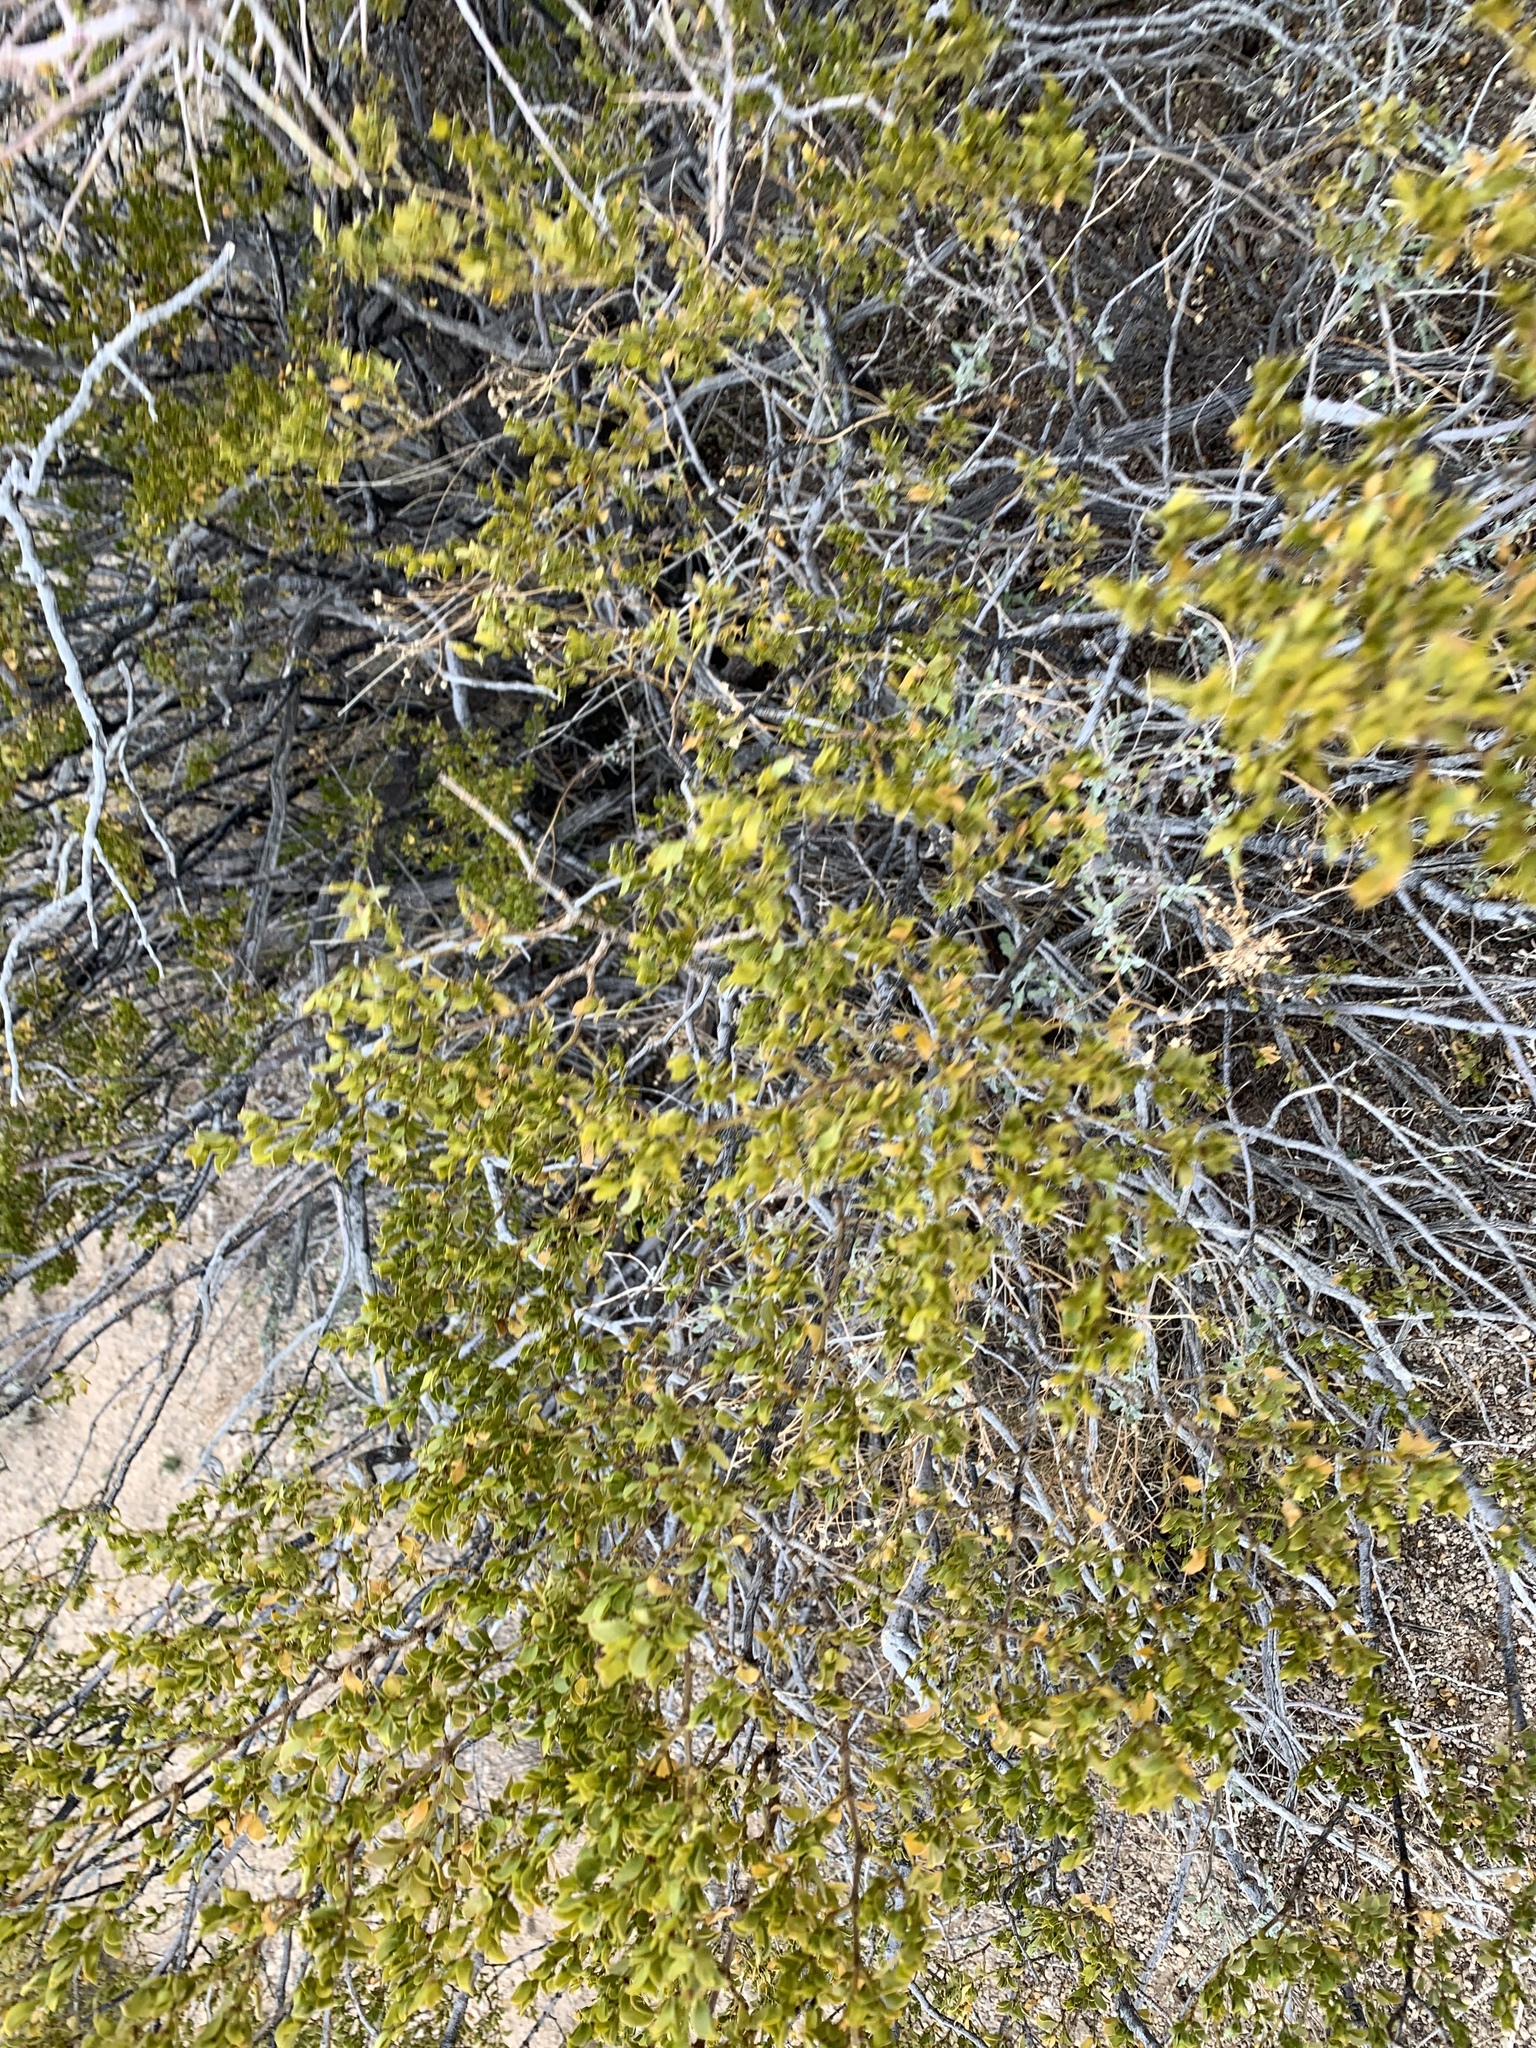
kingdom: Plantae
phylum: Tracheophyta
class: Magnoliopsida
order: Zygophyllales
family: Zygophyllaceae
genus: Larrea
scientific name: Larrea tridentata
